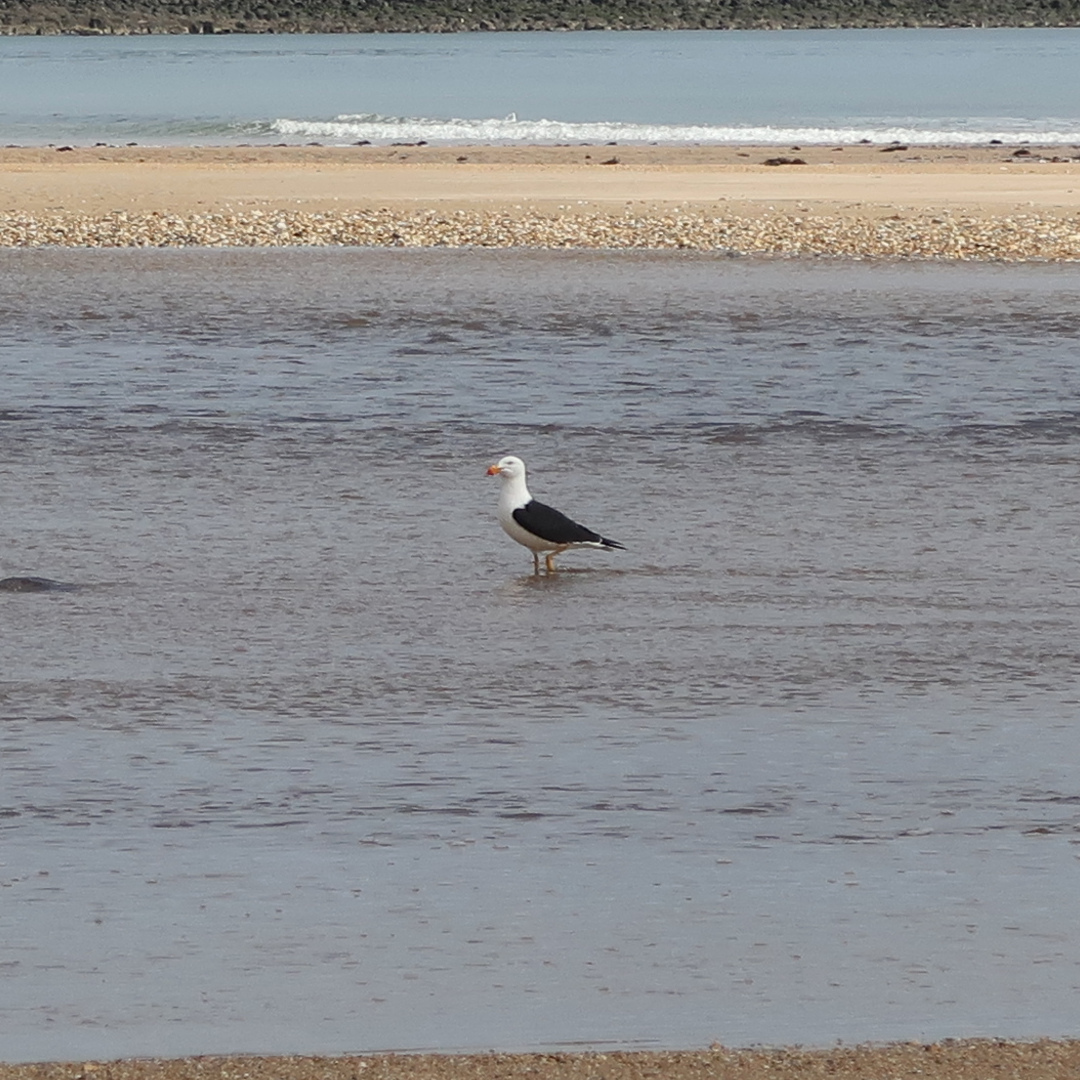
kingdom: Animalia
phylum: Chordata
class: Aves
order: Charadriiformes
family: Laridae
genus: Larus
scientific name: Larus pacificus
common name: Pacific gull
